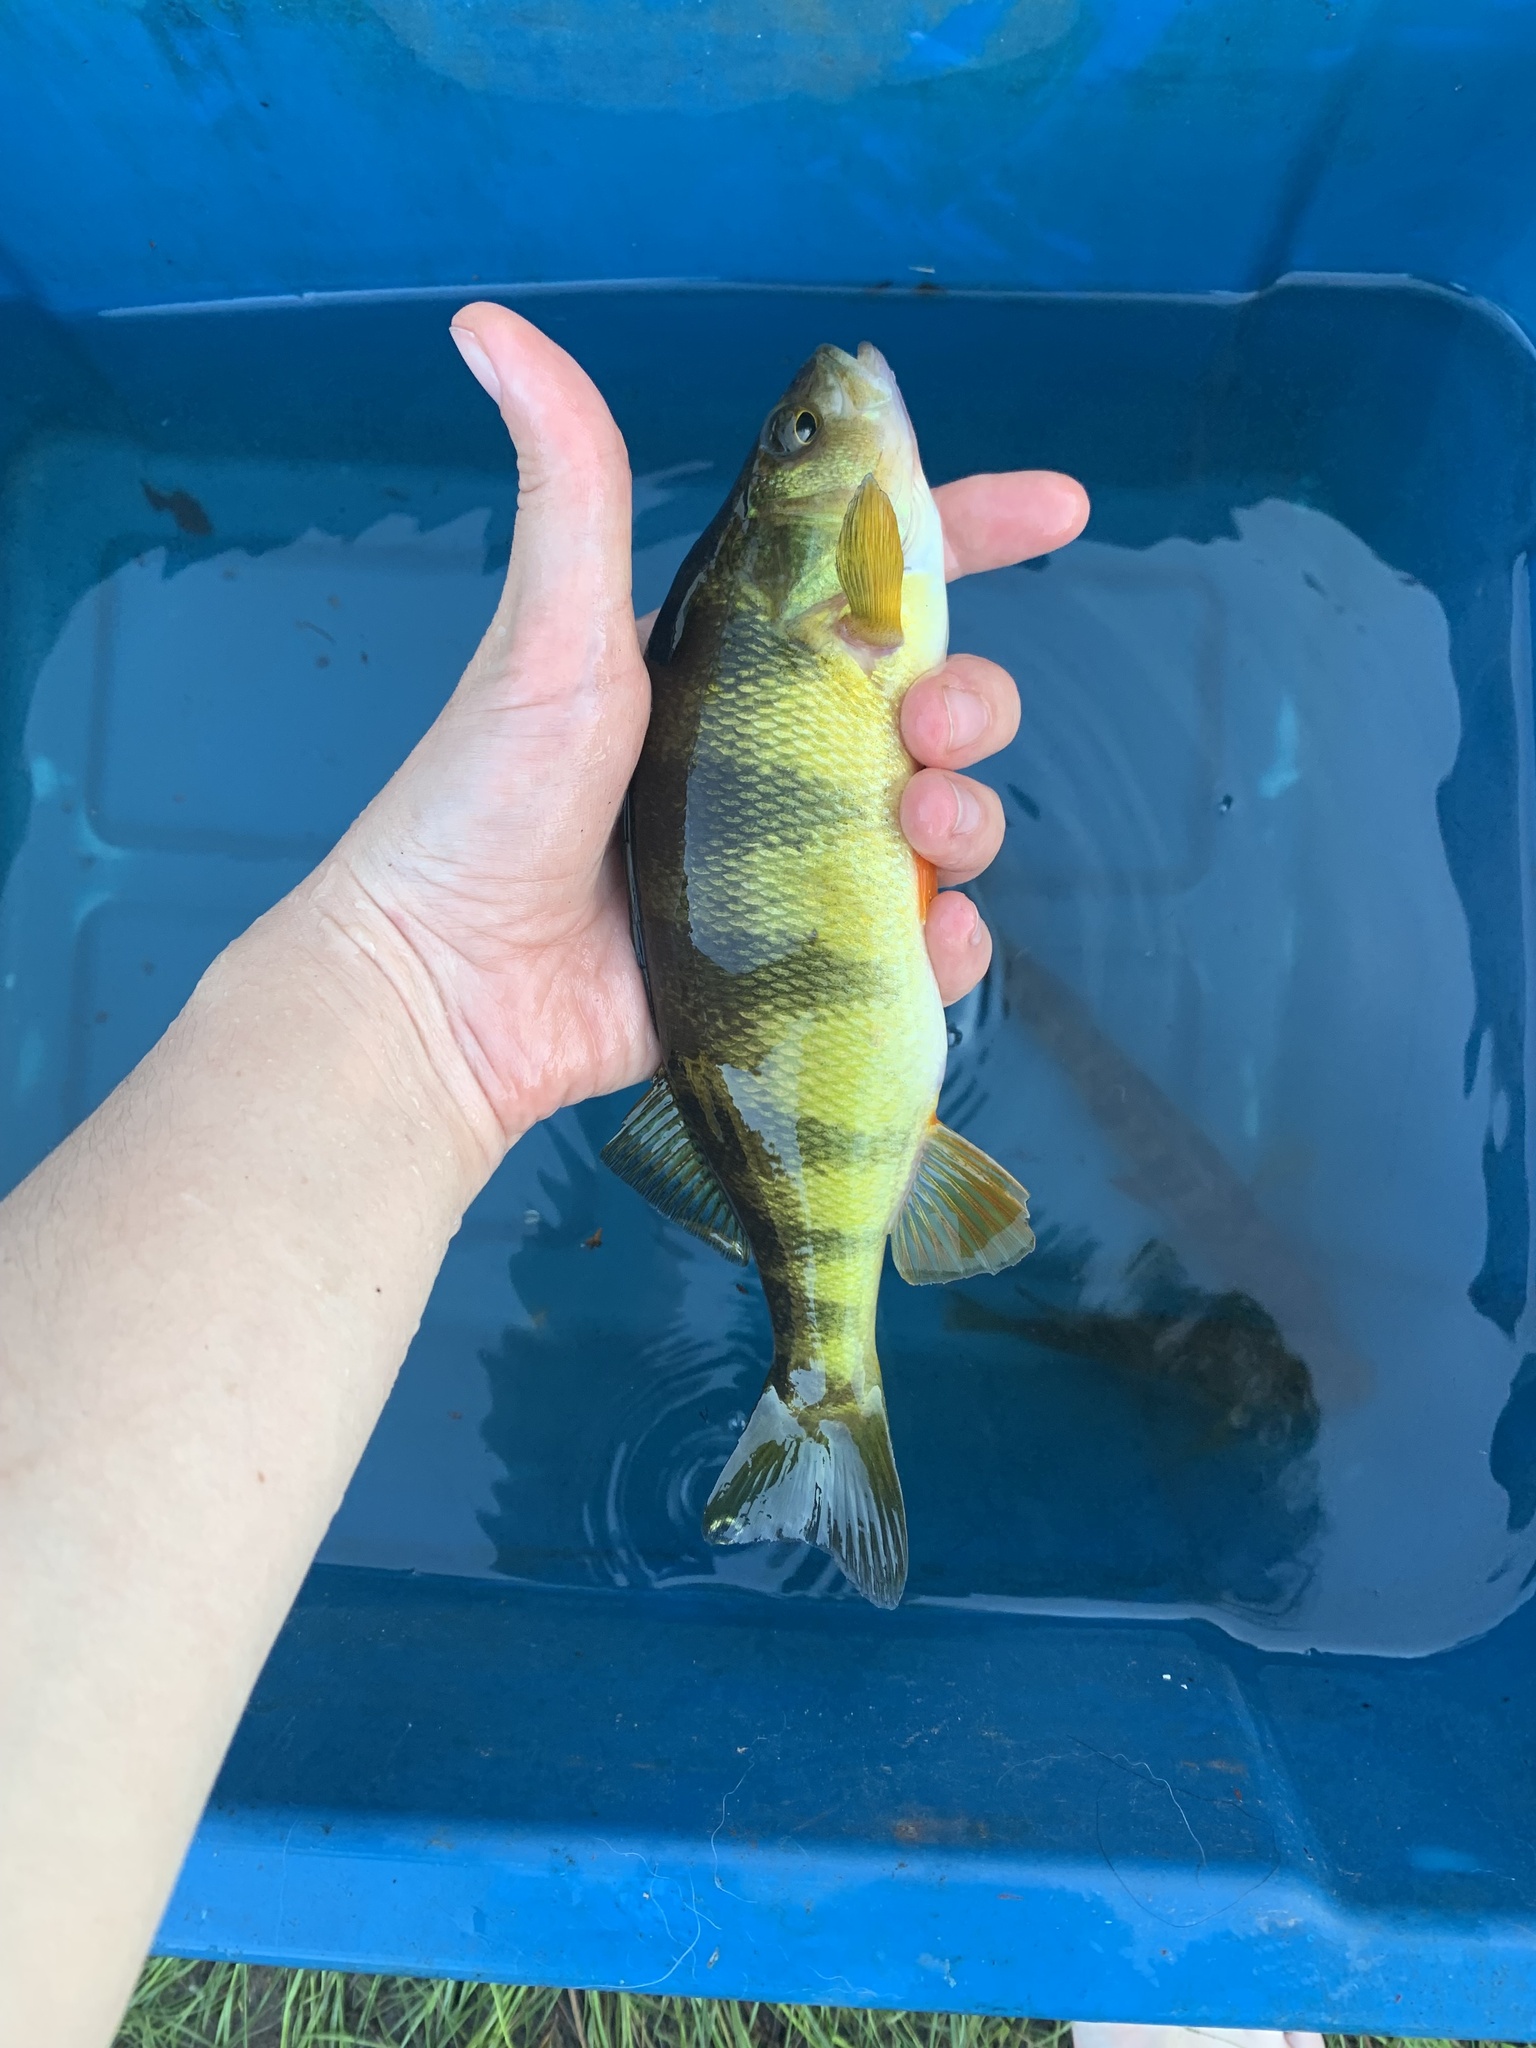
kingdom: Animalia
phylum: Chordata
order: Perciformes
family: Percidae
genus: Perca
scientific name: Perca flavescens
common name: Yellow perch
